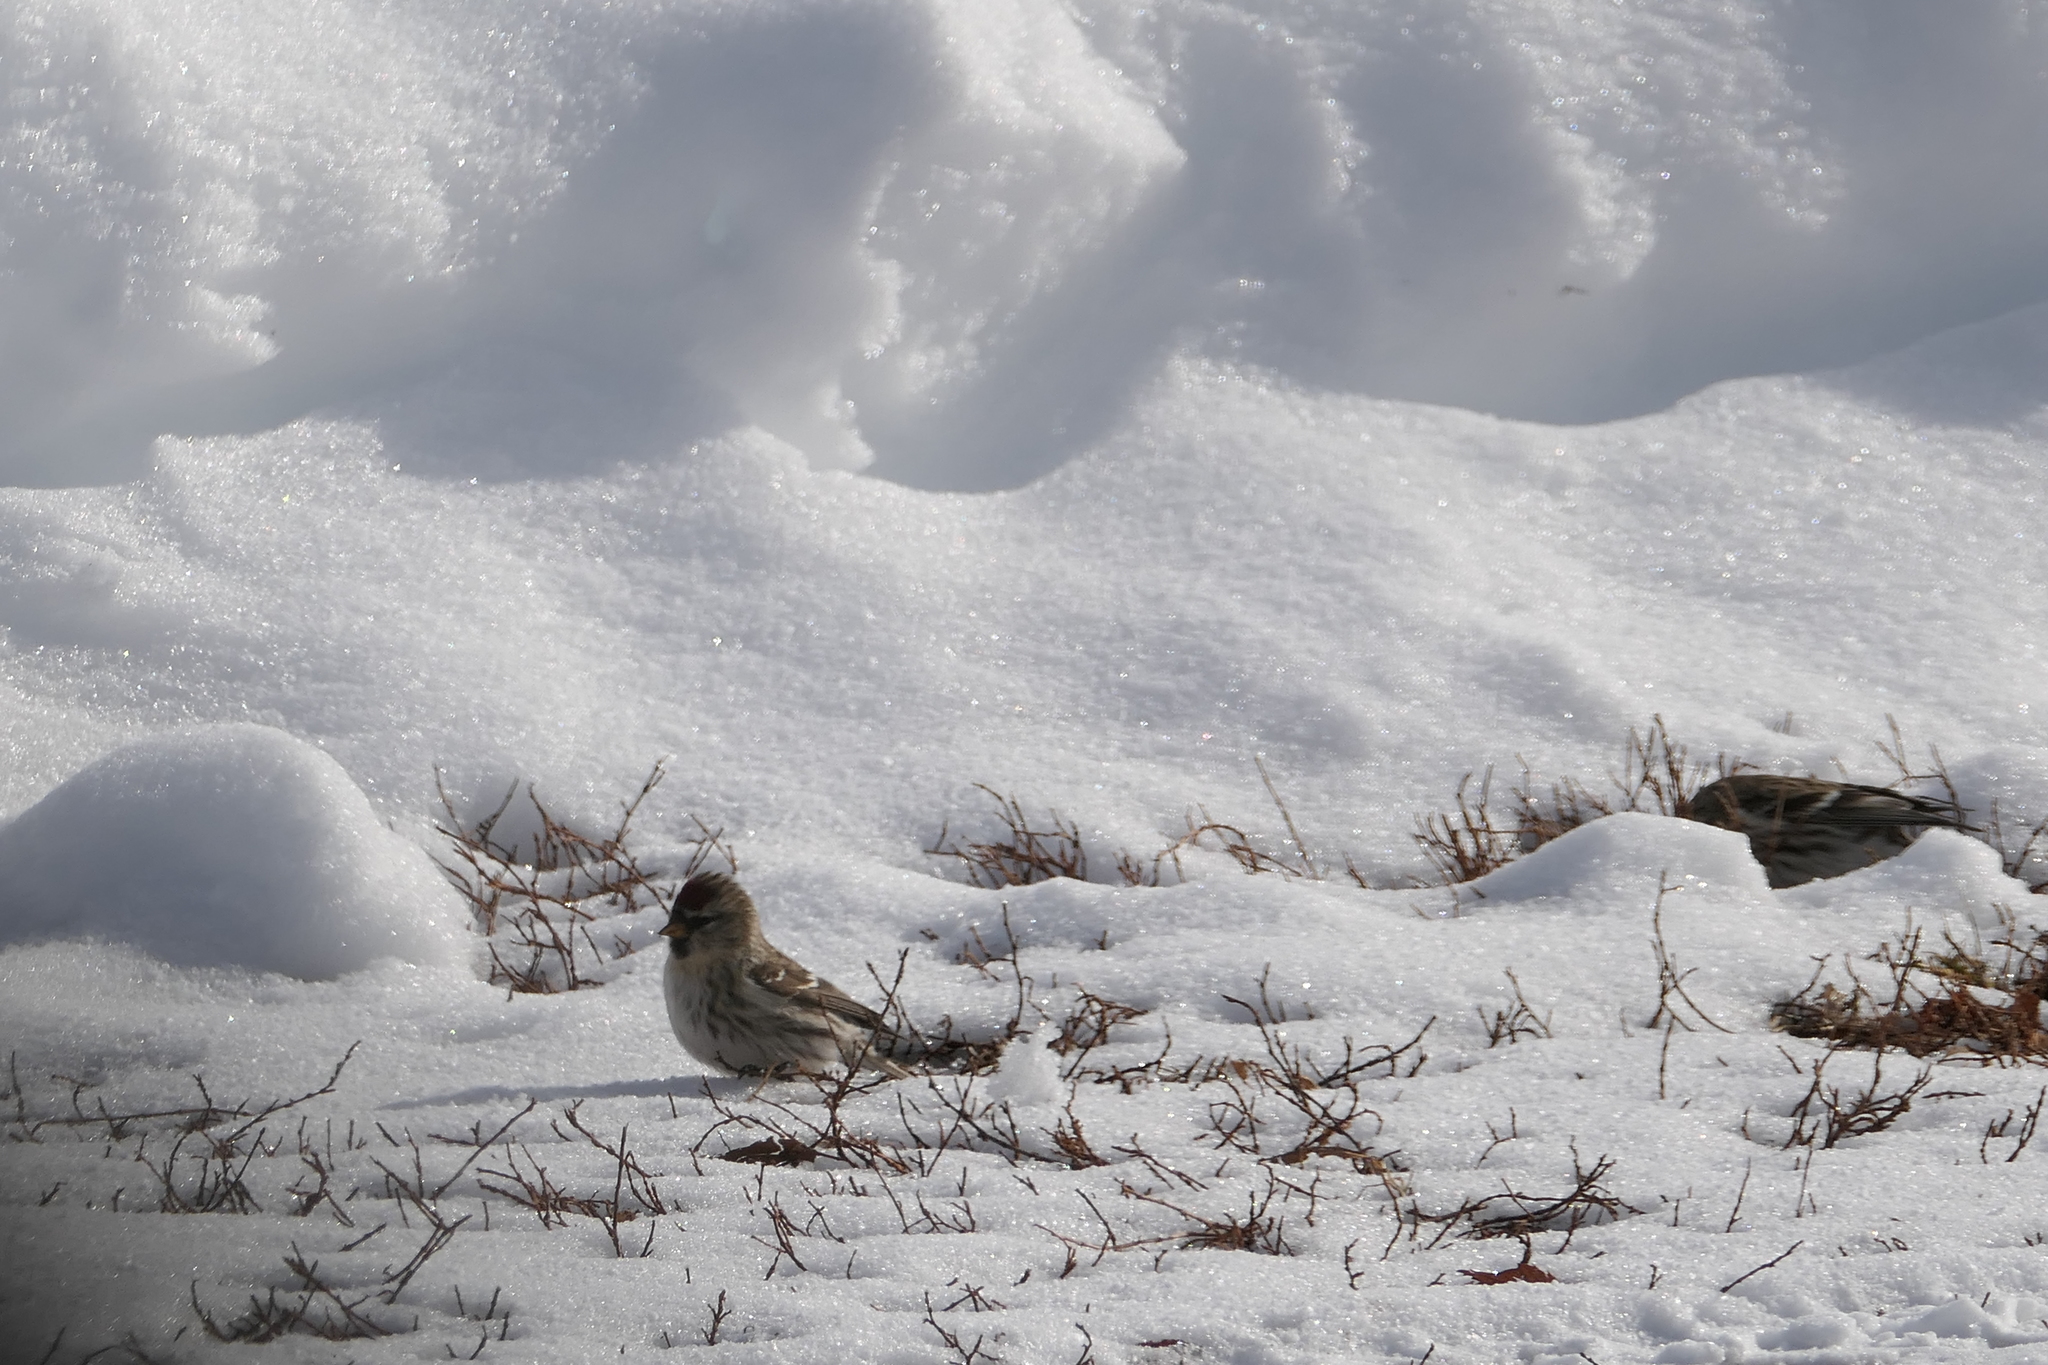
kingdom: Animalia
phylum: Chordata
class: Aves
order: Passeriformes
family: Fringillidae
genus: Acanthis
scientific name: Acanthis flammea
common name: Common redpoll
